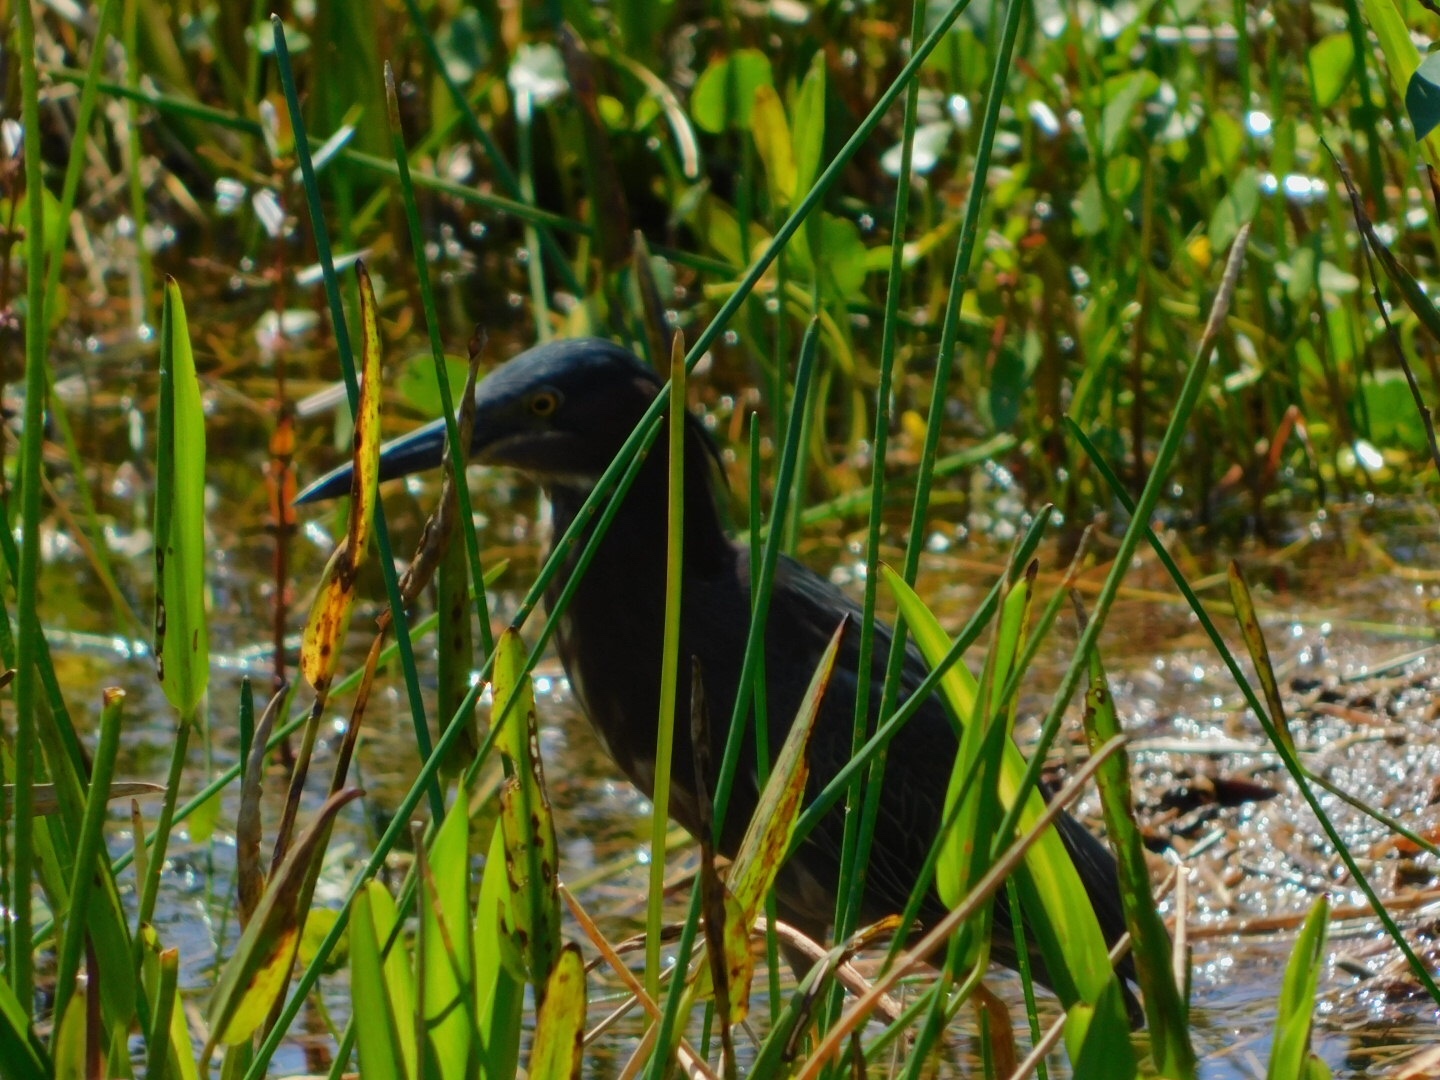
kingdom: Animalia
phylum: Chordata
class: Aves
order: Pelecaniformes
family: Ardeidae
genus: Butorides
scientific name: Butorides virescens
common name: Green heron
